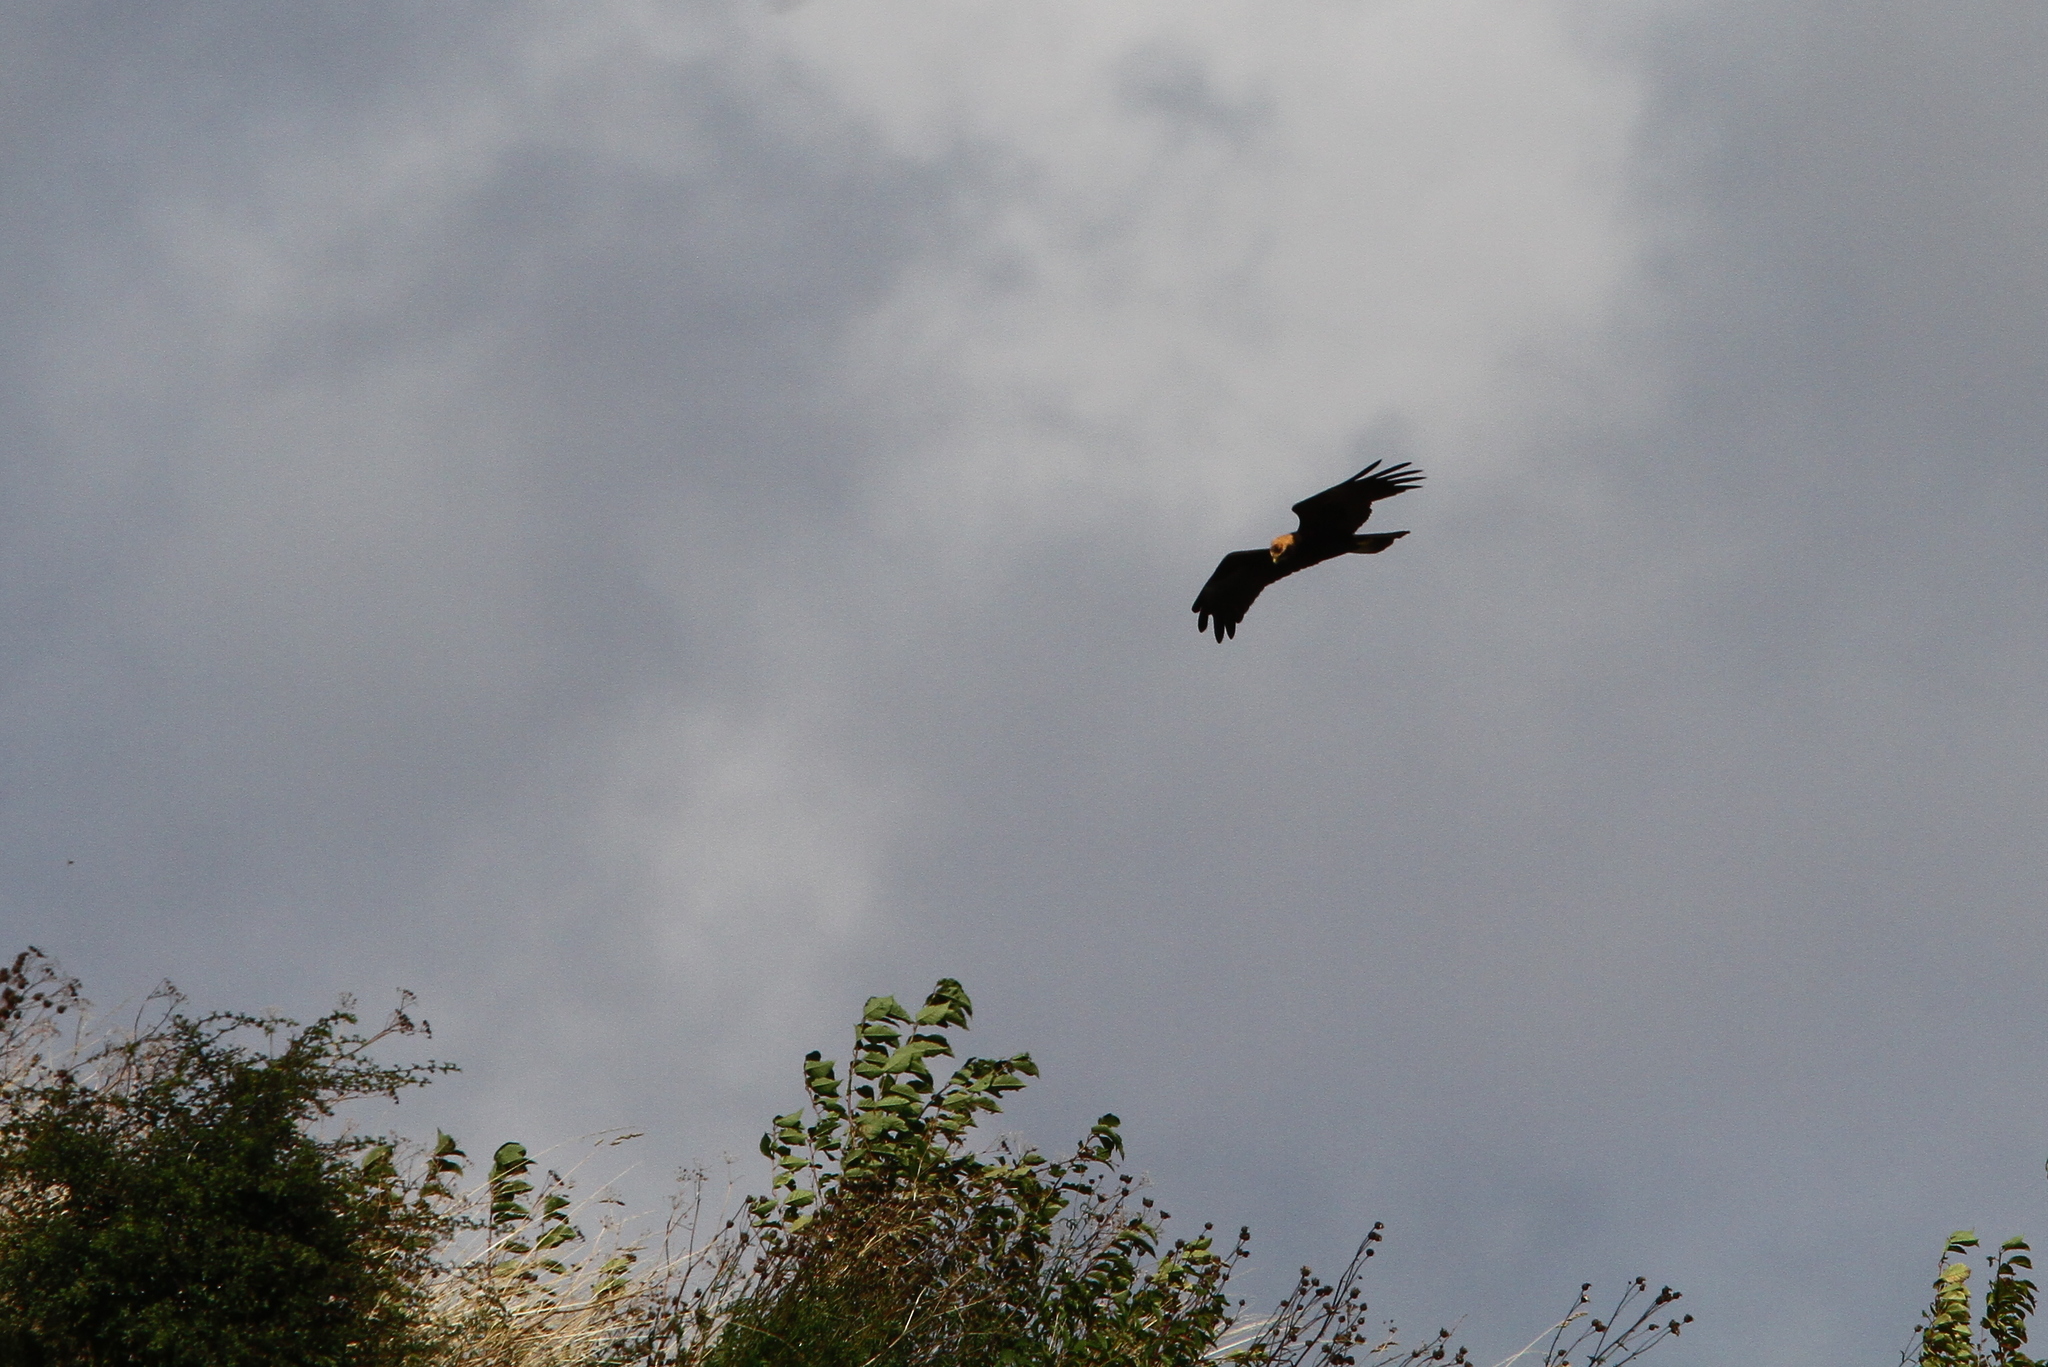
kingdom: Animalia
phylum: Chordata
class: Aves
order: Accipitriformes
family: Accipitridae
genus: Circus
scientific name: Circus aeruginosus
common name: Western marsh harrier
